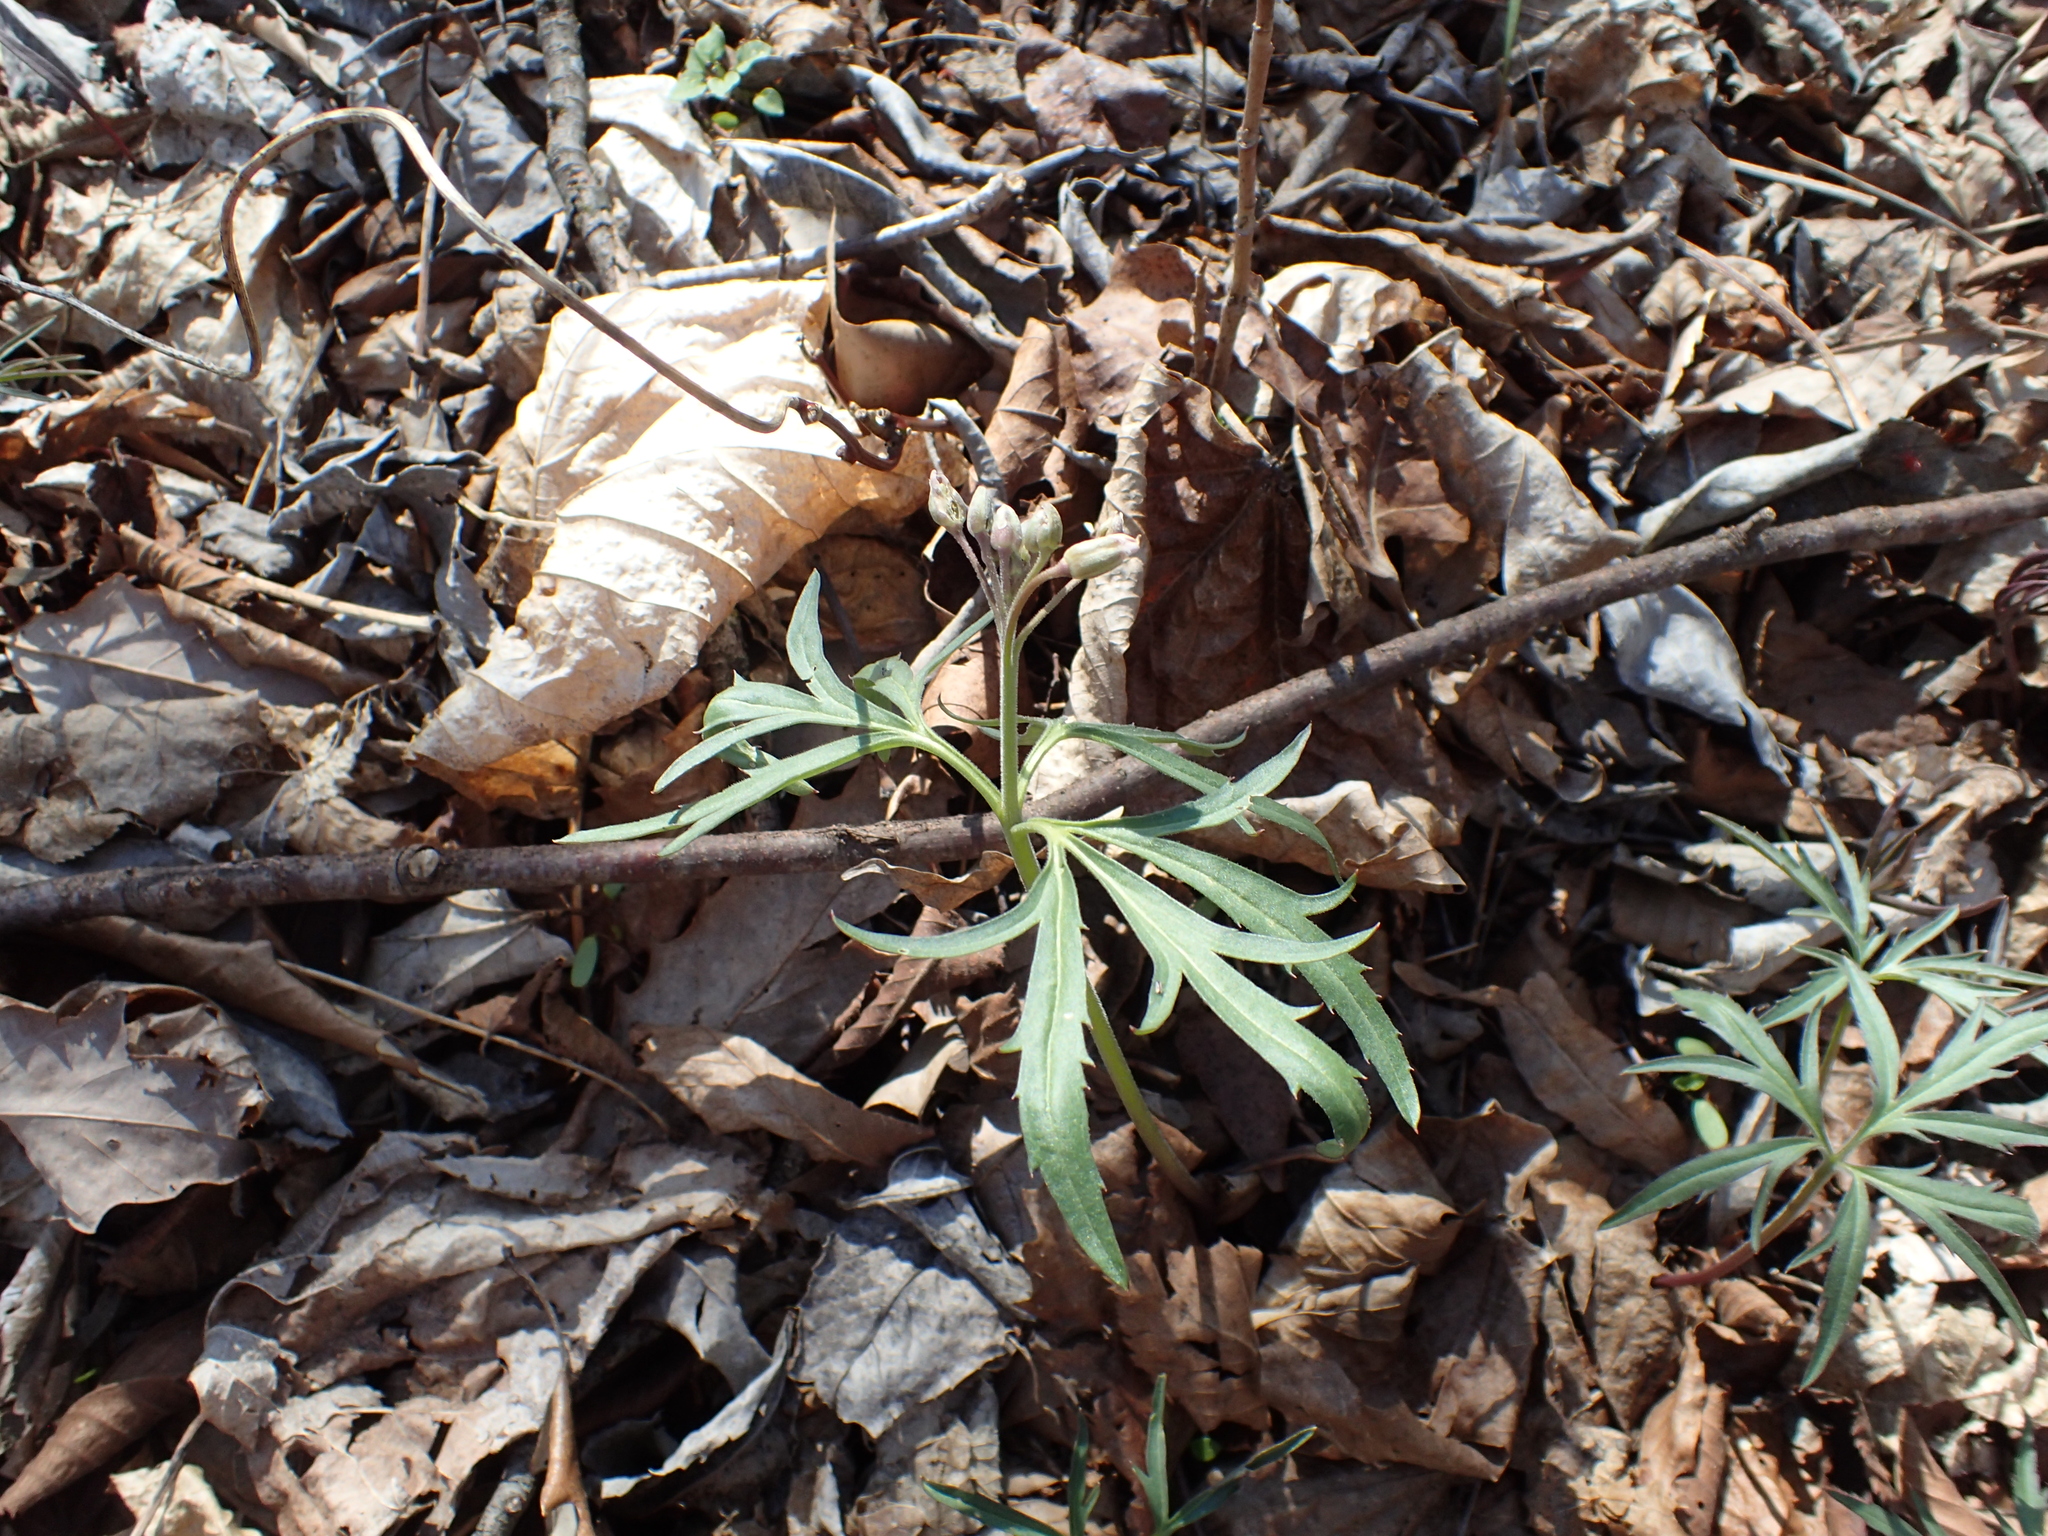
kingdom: Plantae
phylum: Tracheophyta
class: Magnoliopsida
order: Brassicales
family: Brassicaceae
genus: Cardamine
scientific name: Cardamine concatenata
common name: Cut-leaf toothcup
